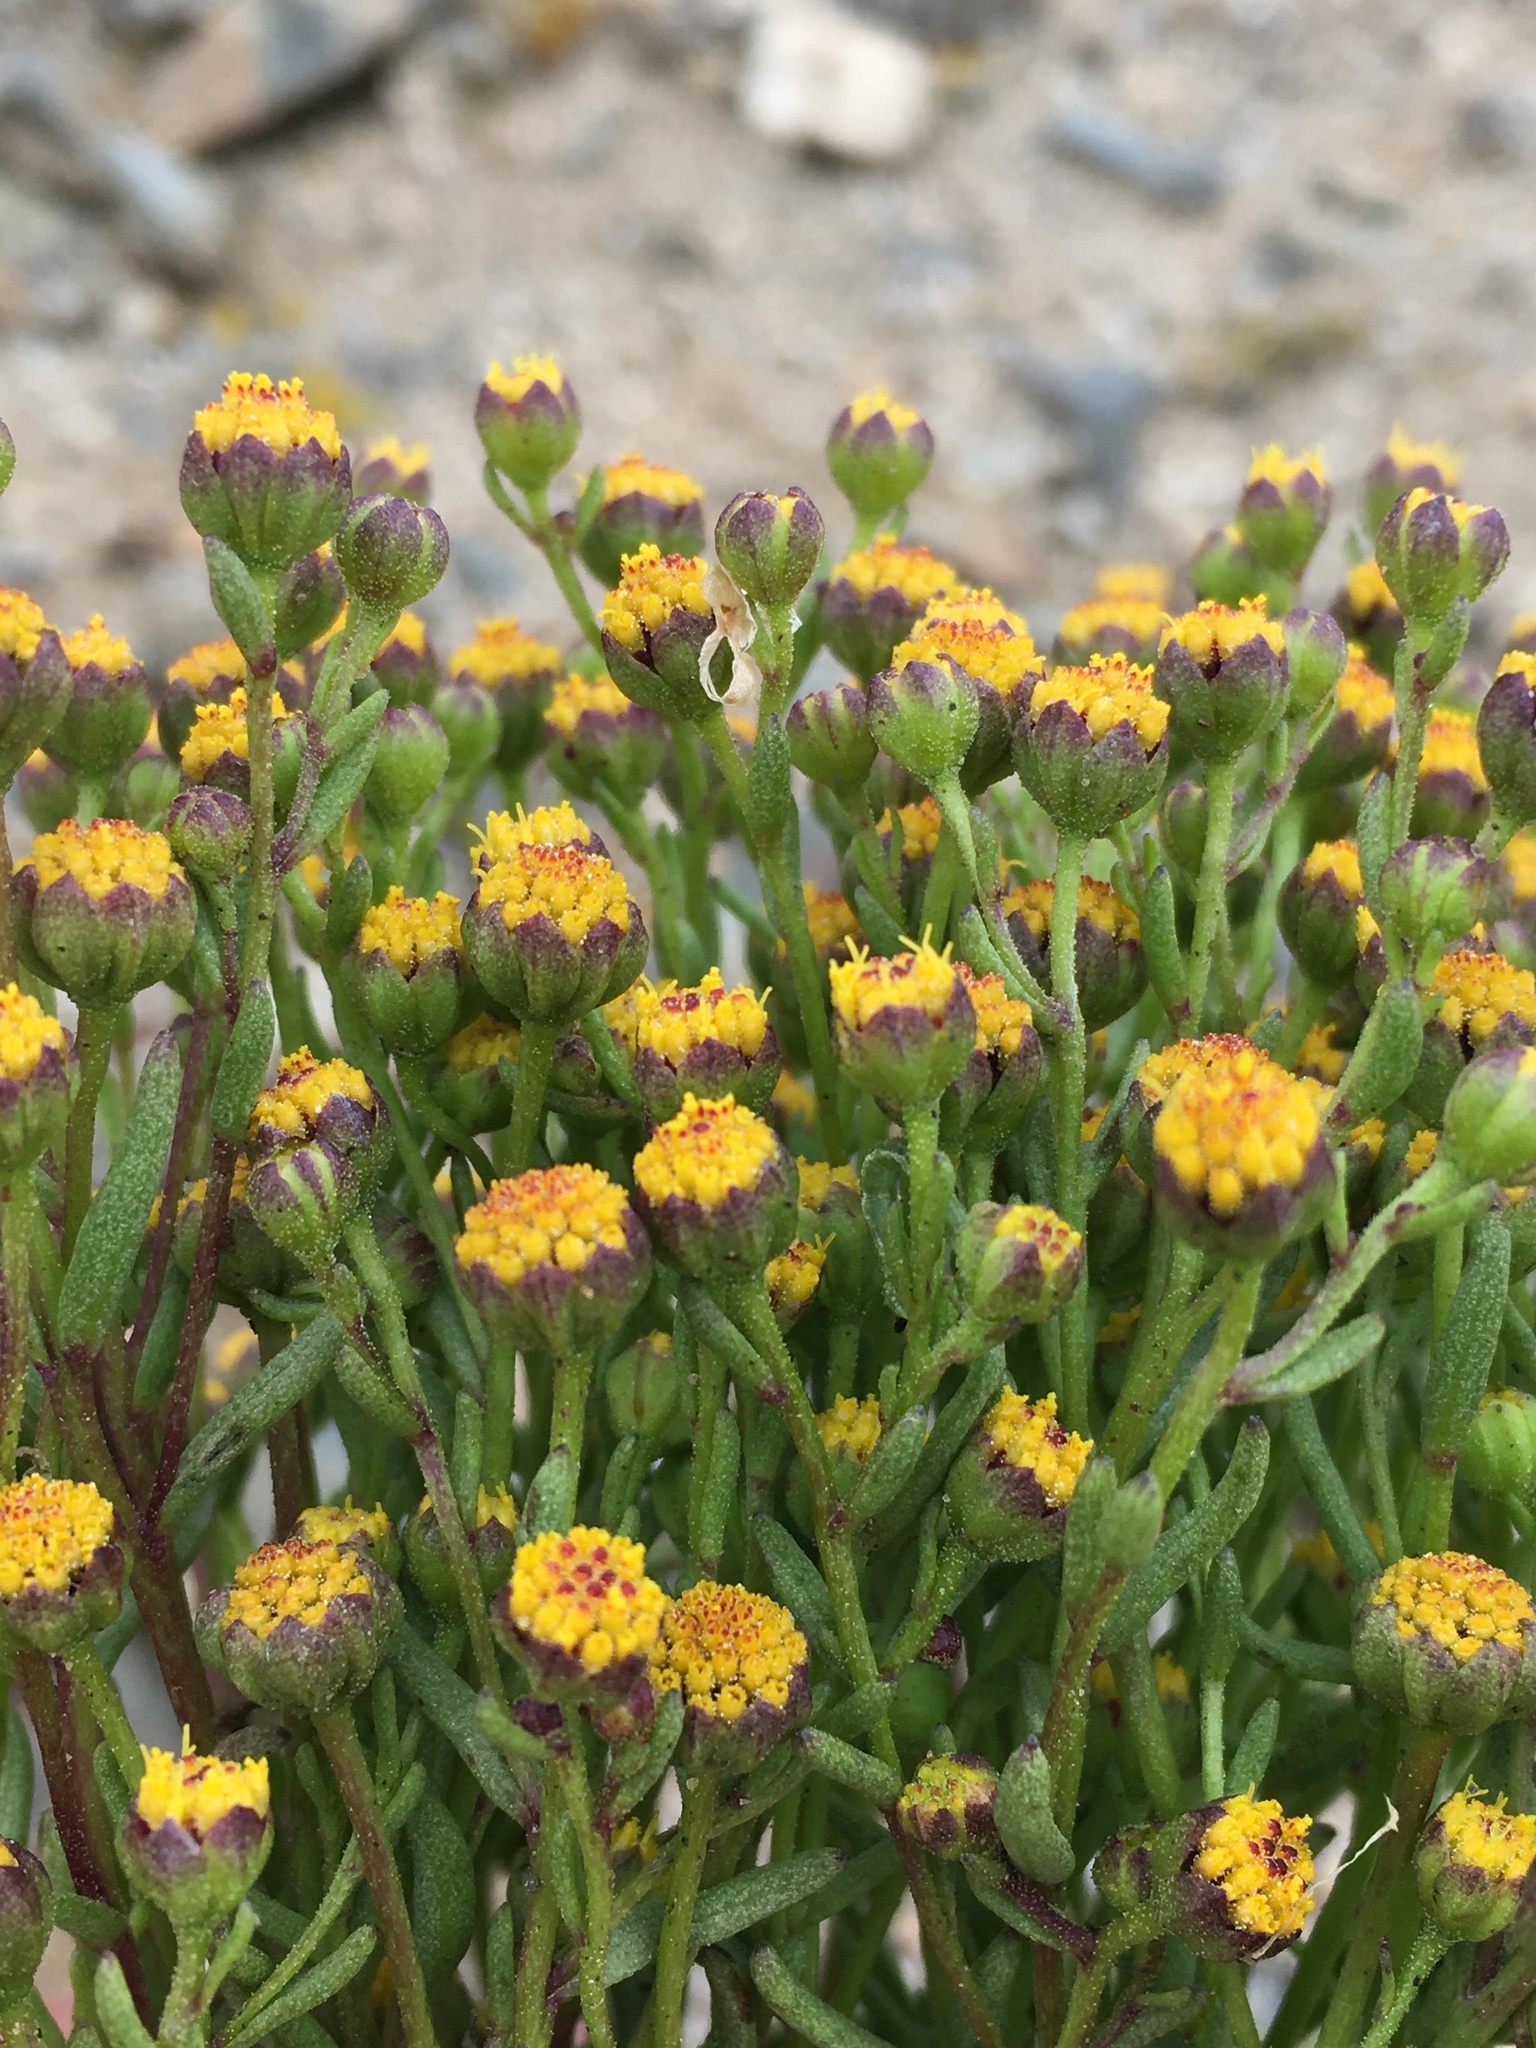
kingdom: Plantae
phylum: Tracheophyta
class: Magnoliopsida
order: Asterales
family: Asteraceae
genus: Amblyopappus
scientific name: Amblyopappus pusillus
